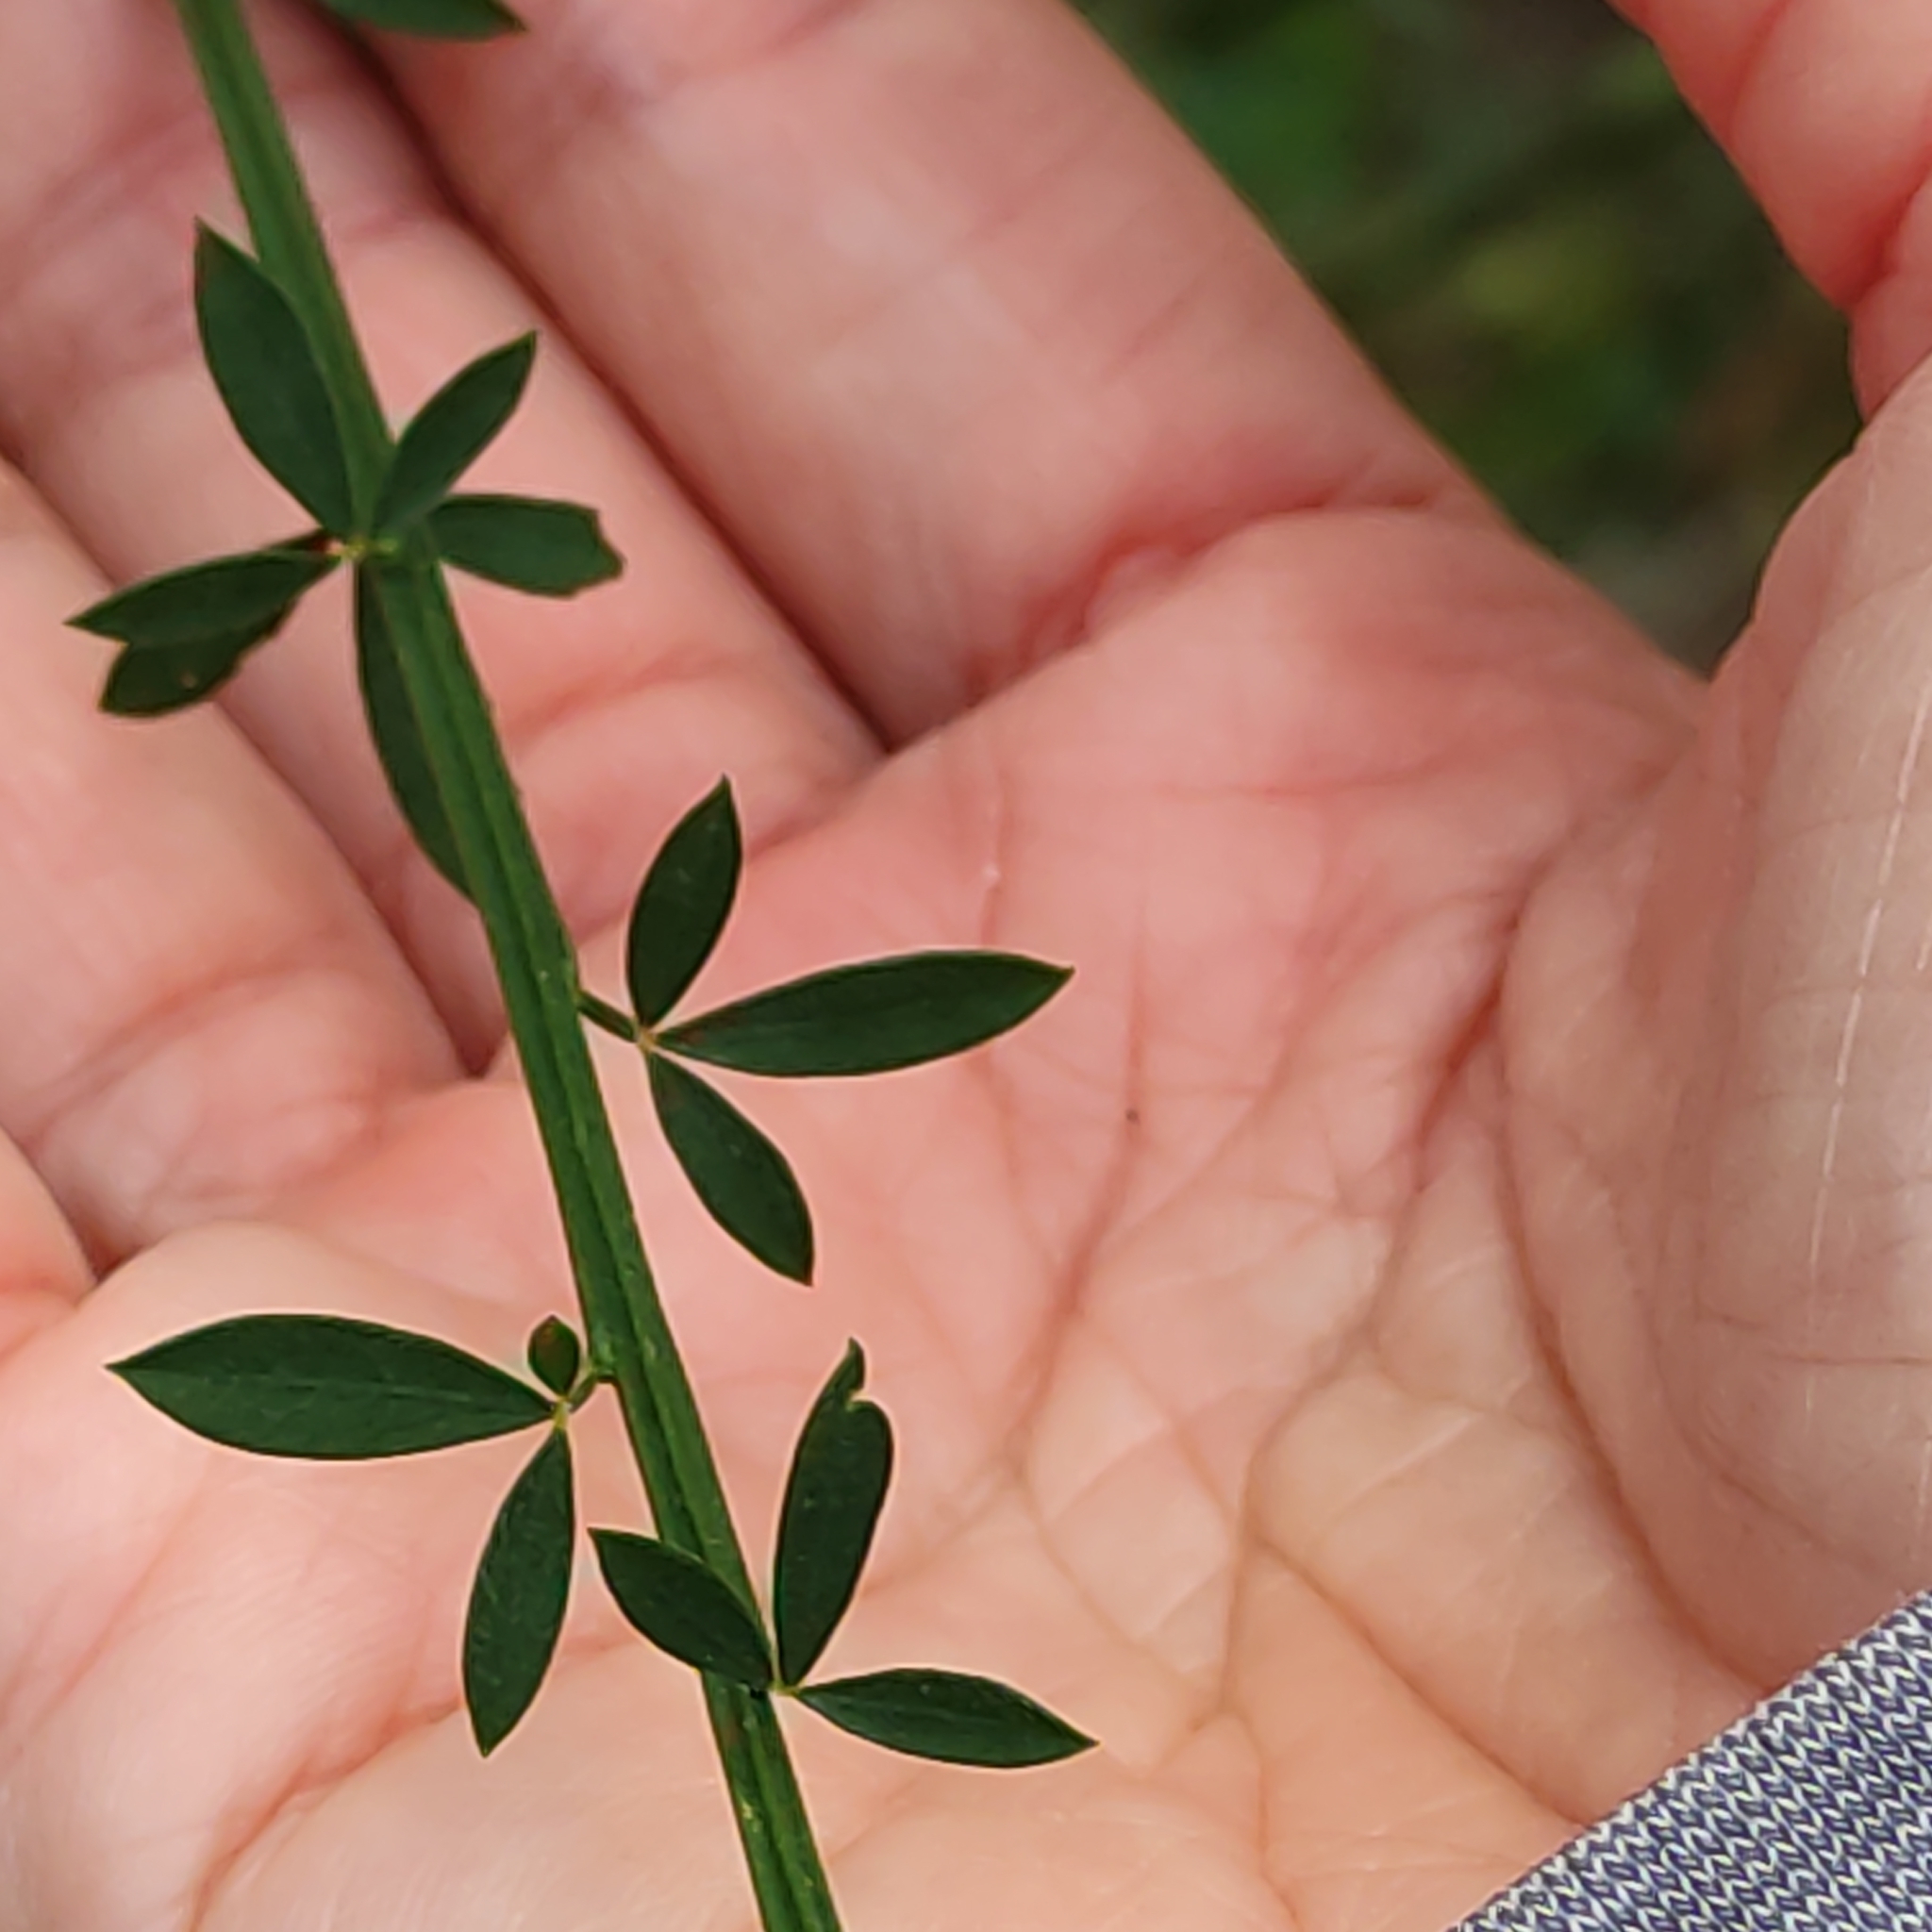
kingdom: Plantae
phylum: Tracheophyta
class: Magnoliopsida
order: Fabales
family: Fabaceae
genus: Cytisus
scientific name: Cytisus scoparius
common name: Scotch broom
